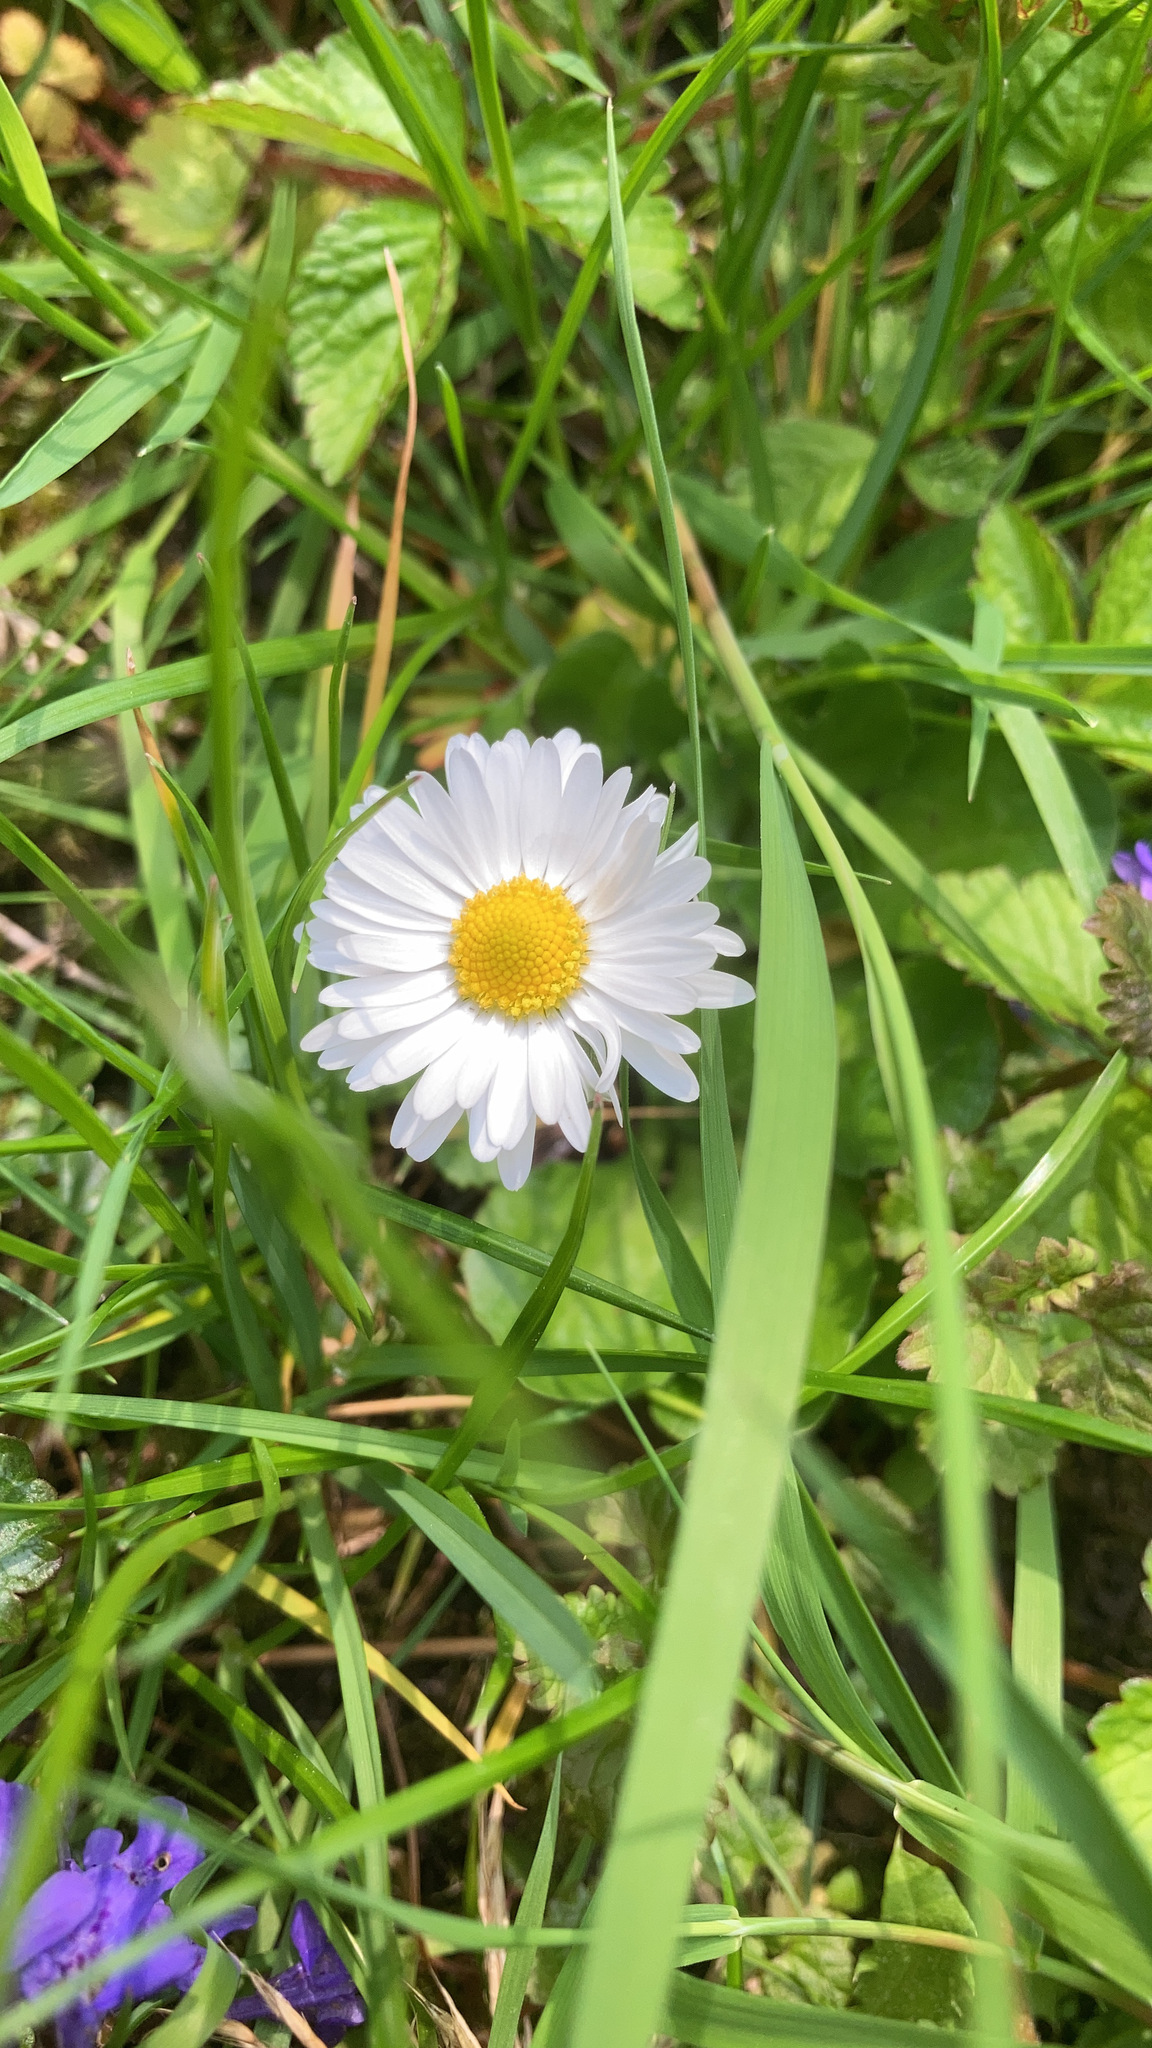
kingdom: Plantae
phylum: Tracheophyta
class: Magnoliopsida
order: Asterales
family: Asteraceae
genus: Bellis
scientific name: Bellis perennis
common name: Lawndaisy
